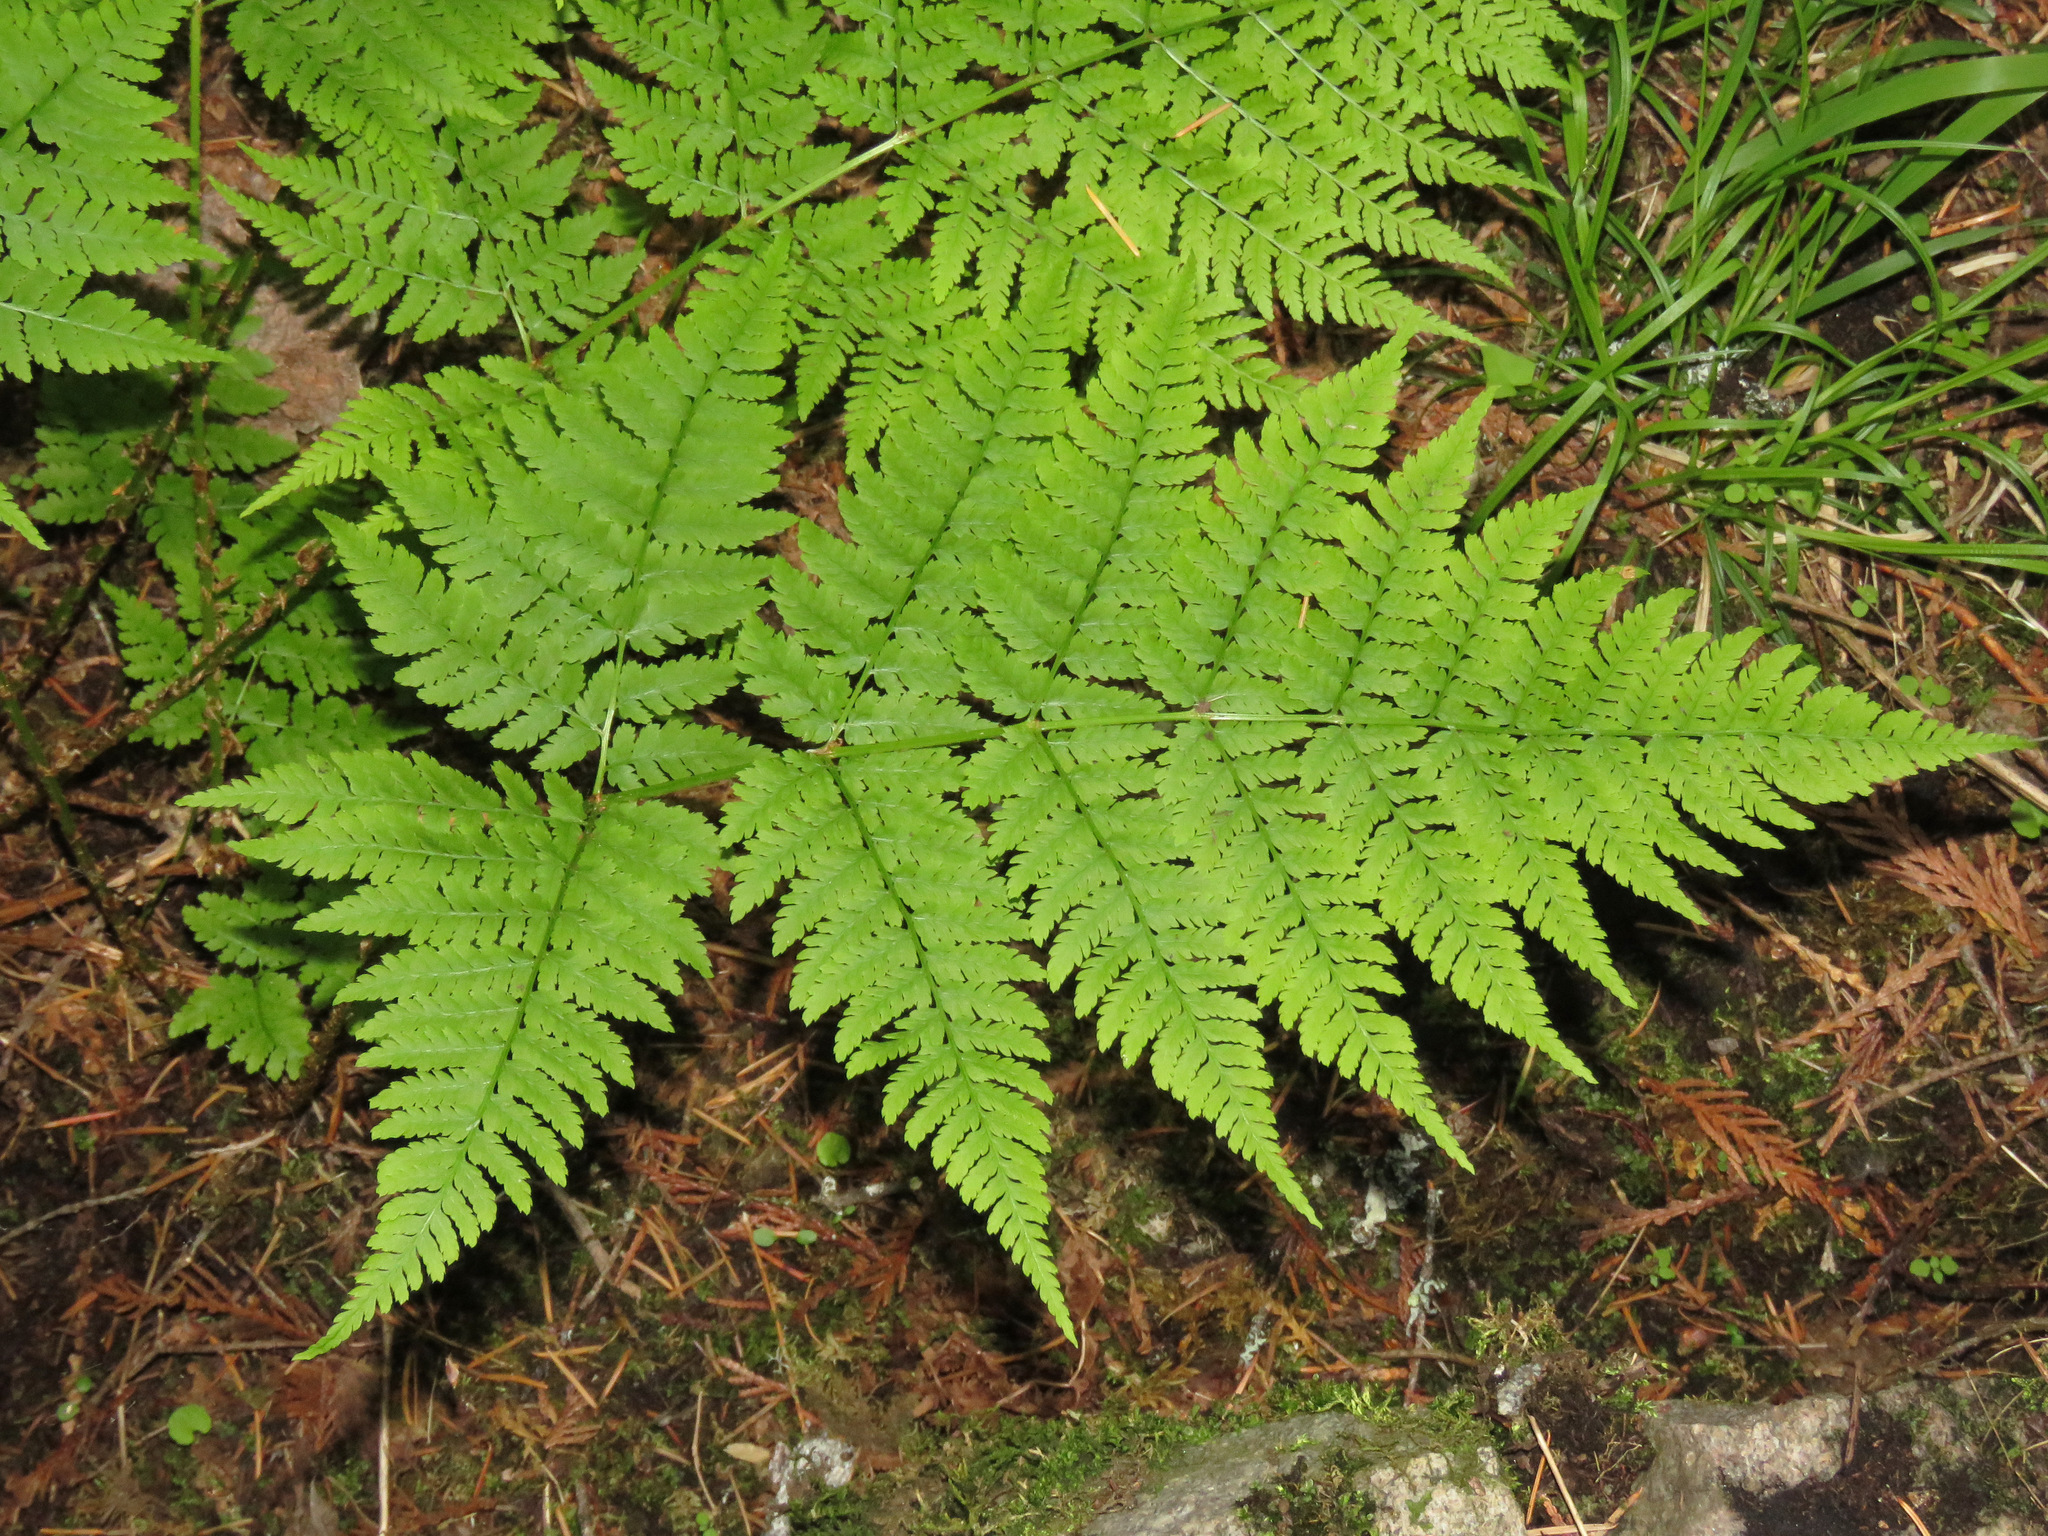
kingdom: Plantae
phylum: Tracheophyta
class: Polypodiopsida
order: Polypodiales
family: Dryopteridaceae
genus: Dryopteris
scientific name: Dryopteris expansa
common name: Northern buckler fern
